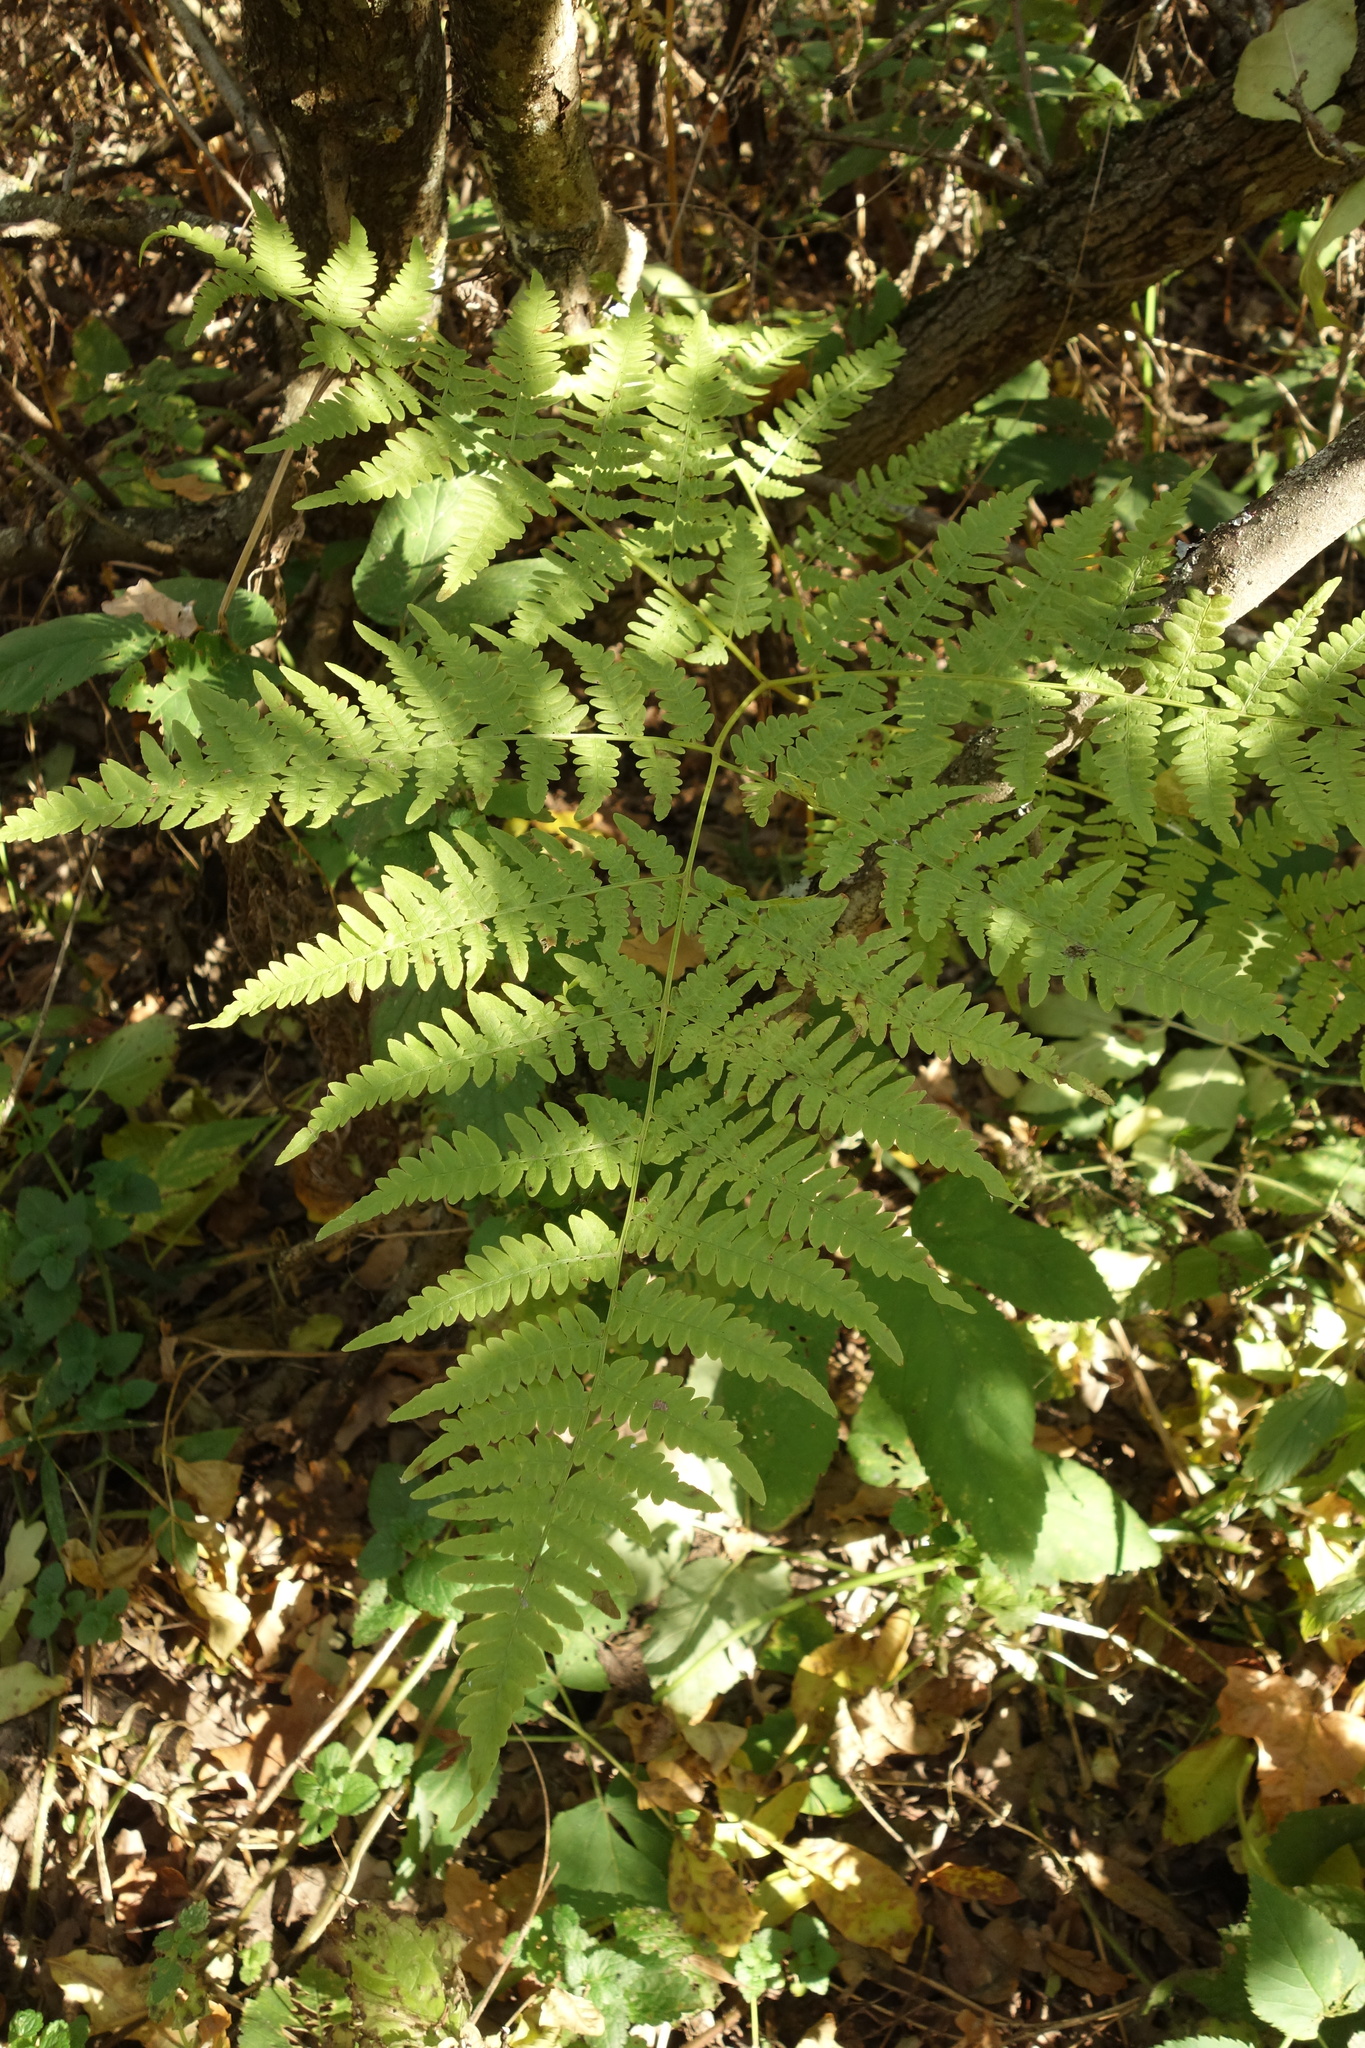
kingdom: Plantae
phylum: Tracheophyta
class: Polypodiopsida
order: Polypodiales
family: Dennstaedtiaceae
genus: Pteridium
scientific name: Pteridium aquilinum
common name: Bracken
